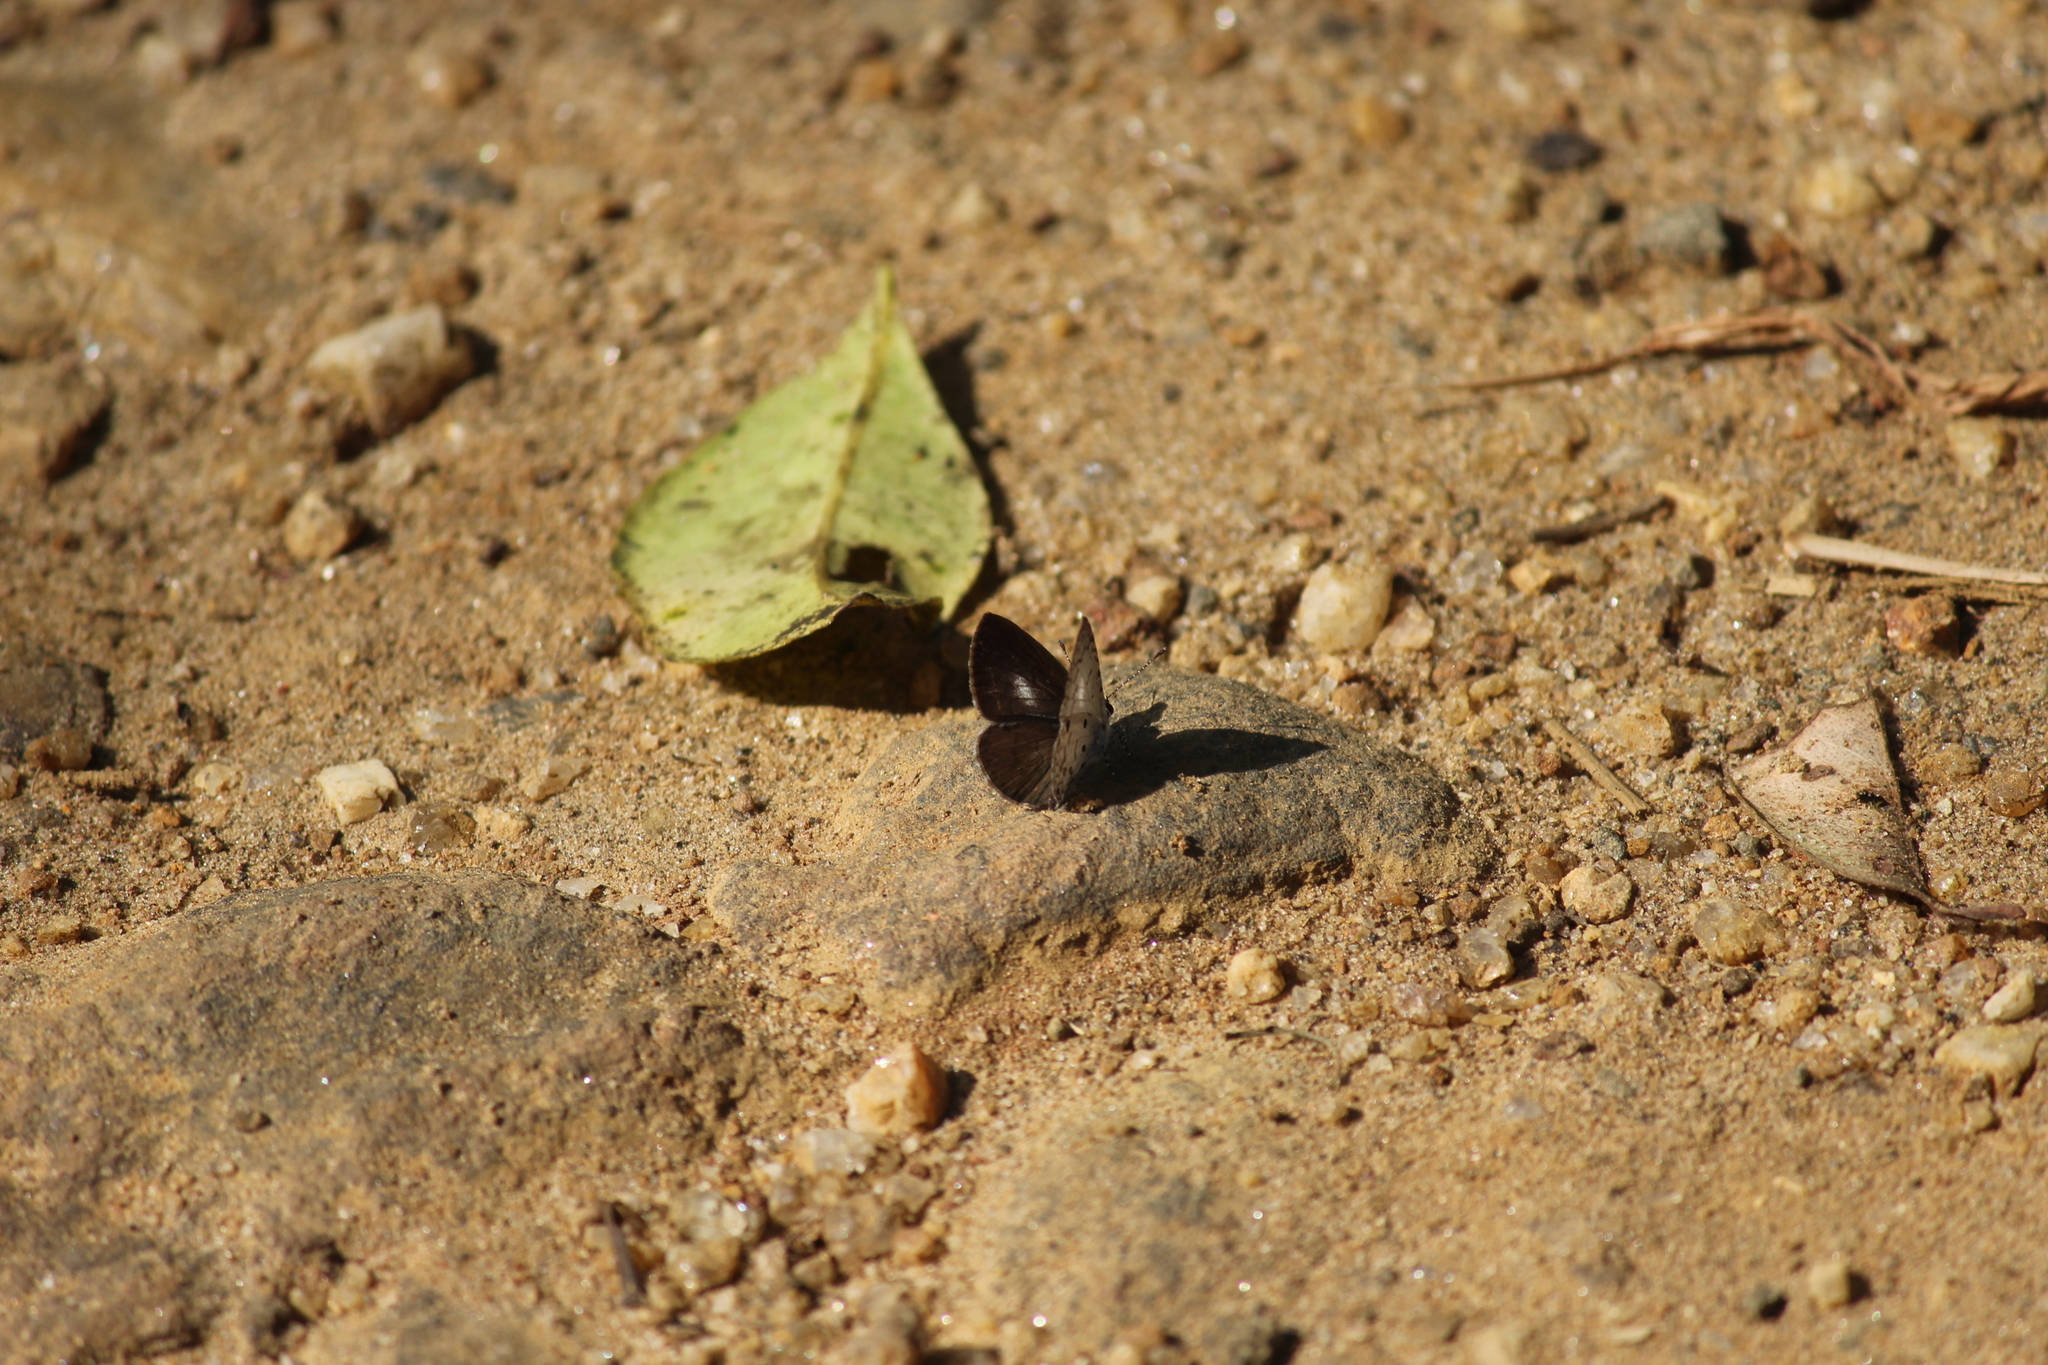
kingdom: Animalia
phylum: Arthropoda
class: Insecta
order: Lepidoptera
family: Lycaenidae
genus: Megisba
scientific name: Megisba malaya
